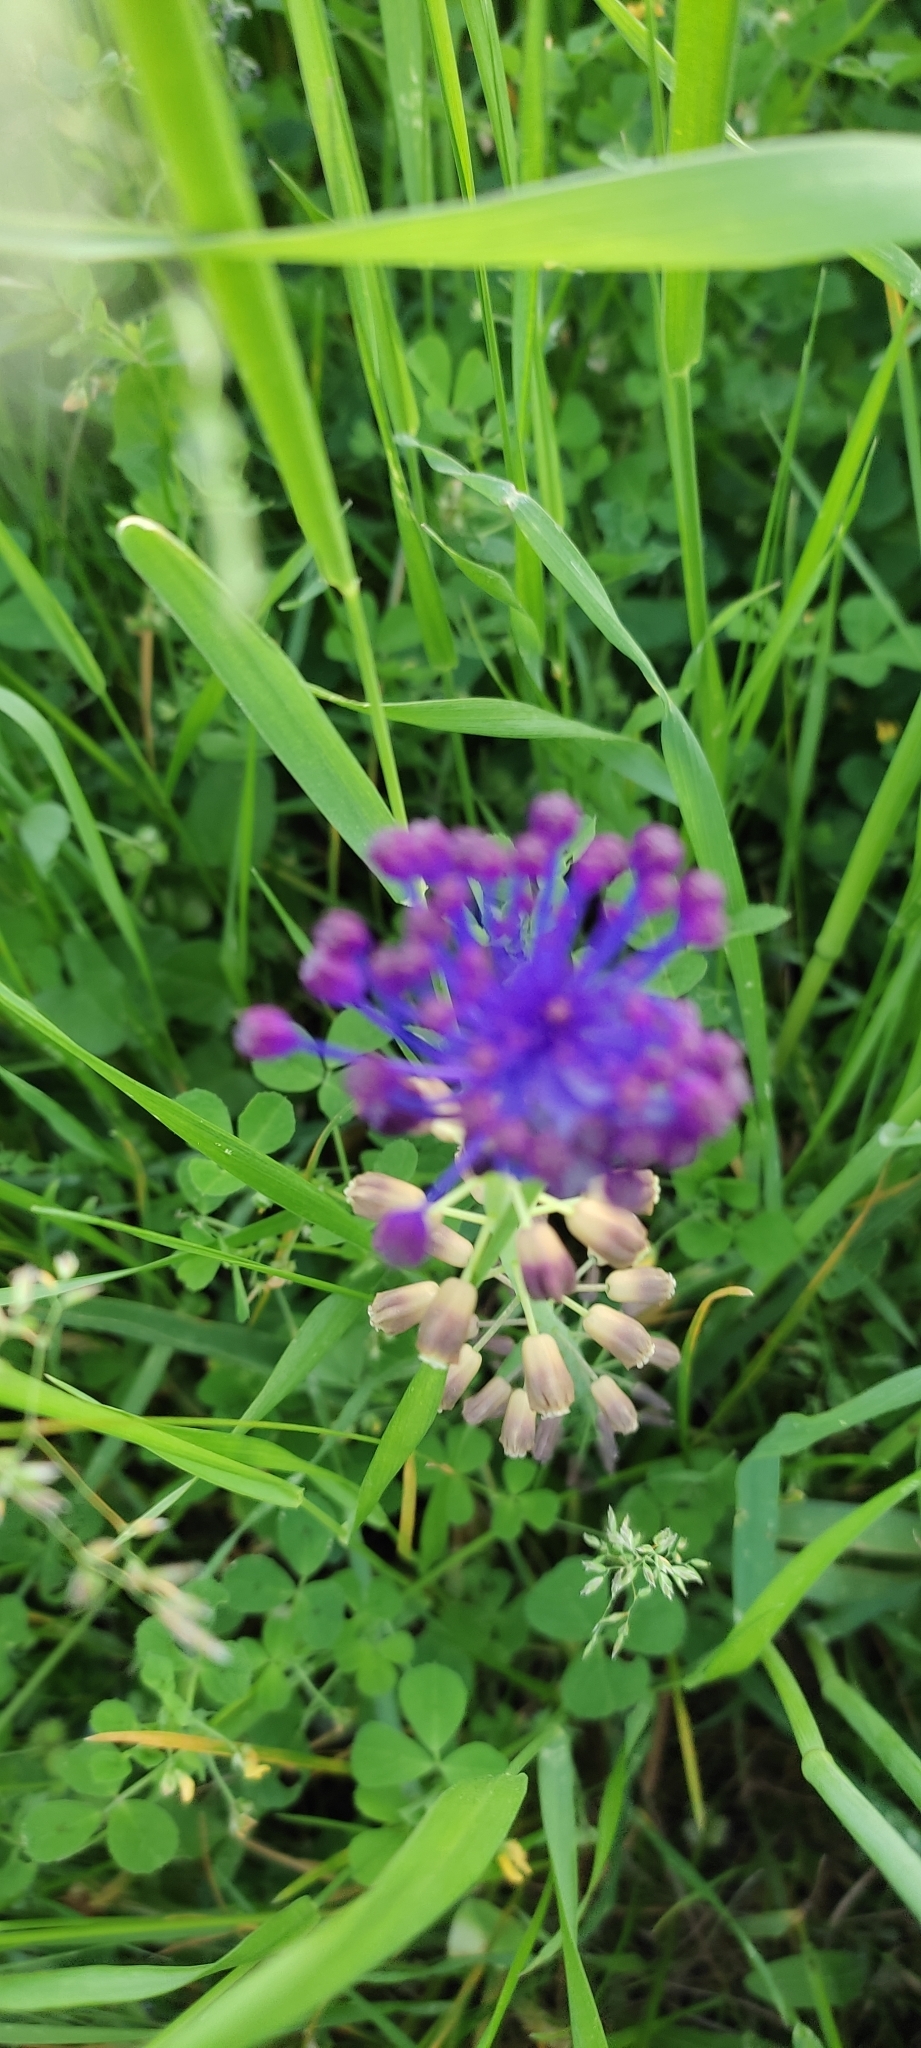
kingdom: Plantae
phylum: Tracheophyta
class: Liliopsida
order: Asparagales
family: Asparagaceae
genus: Muscari
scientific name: Muscari comosum
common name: Tassel hyacinth
